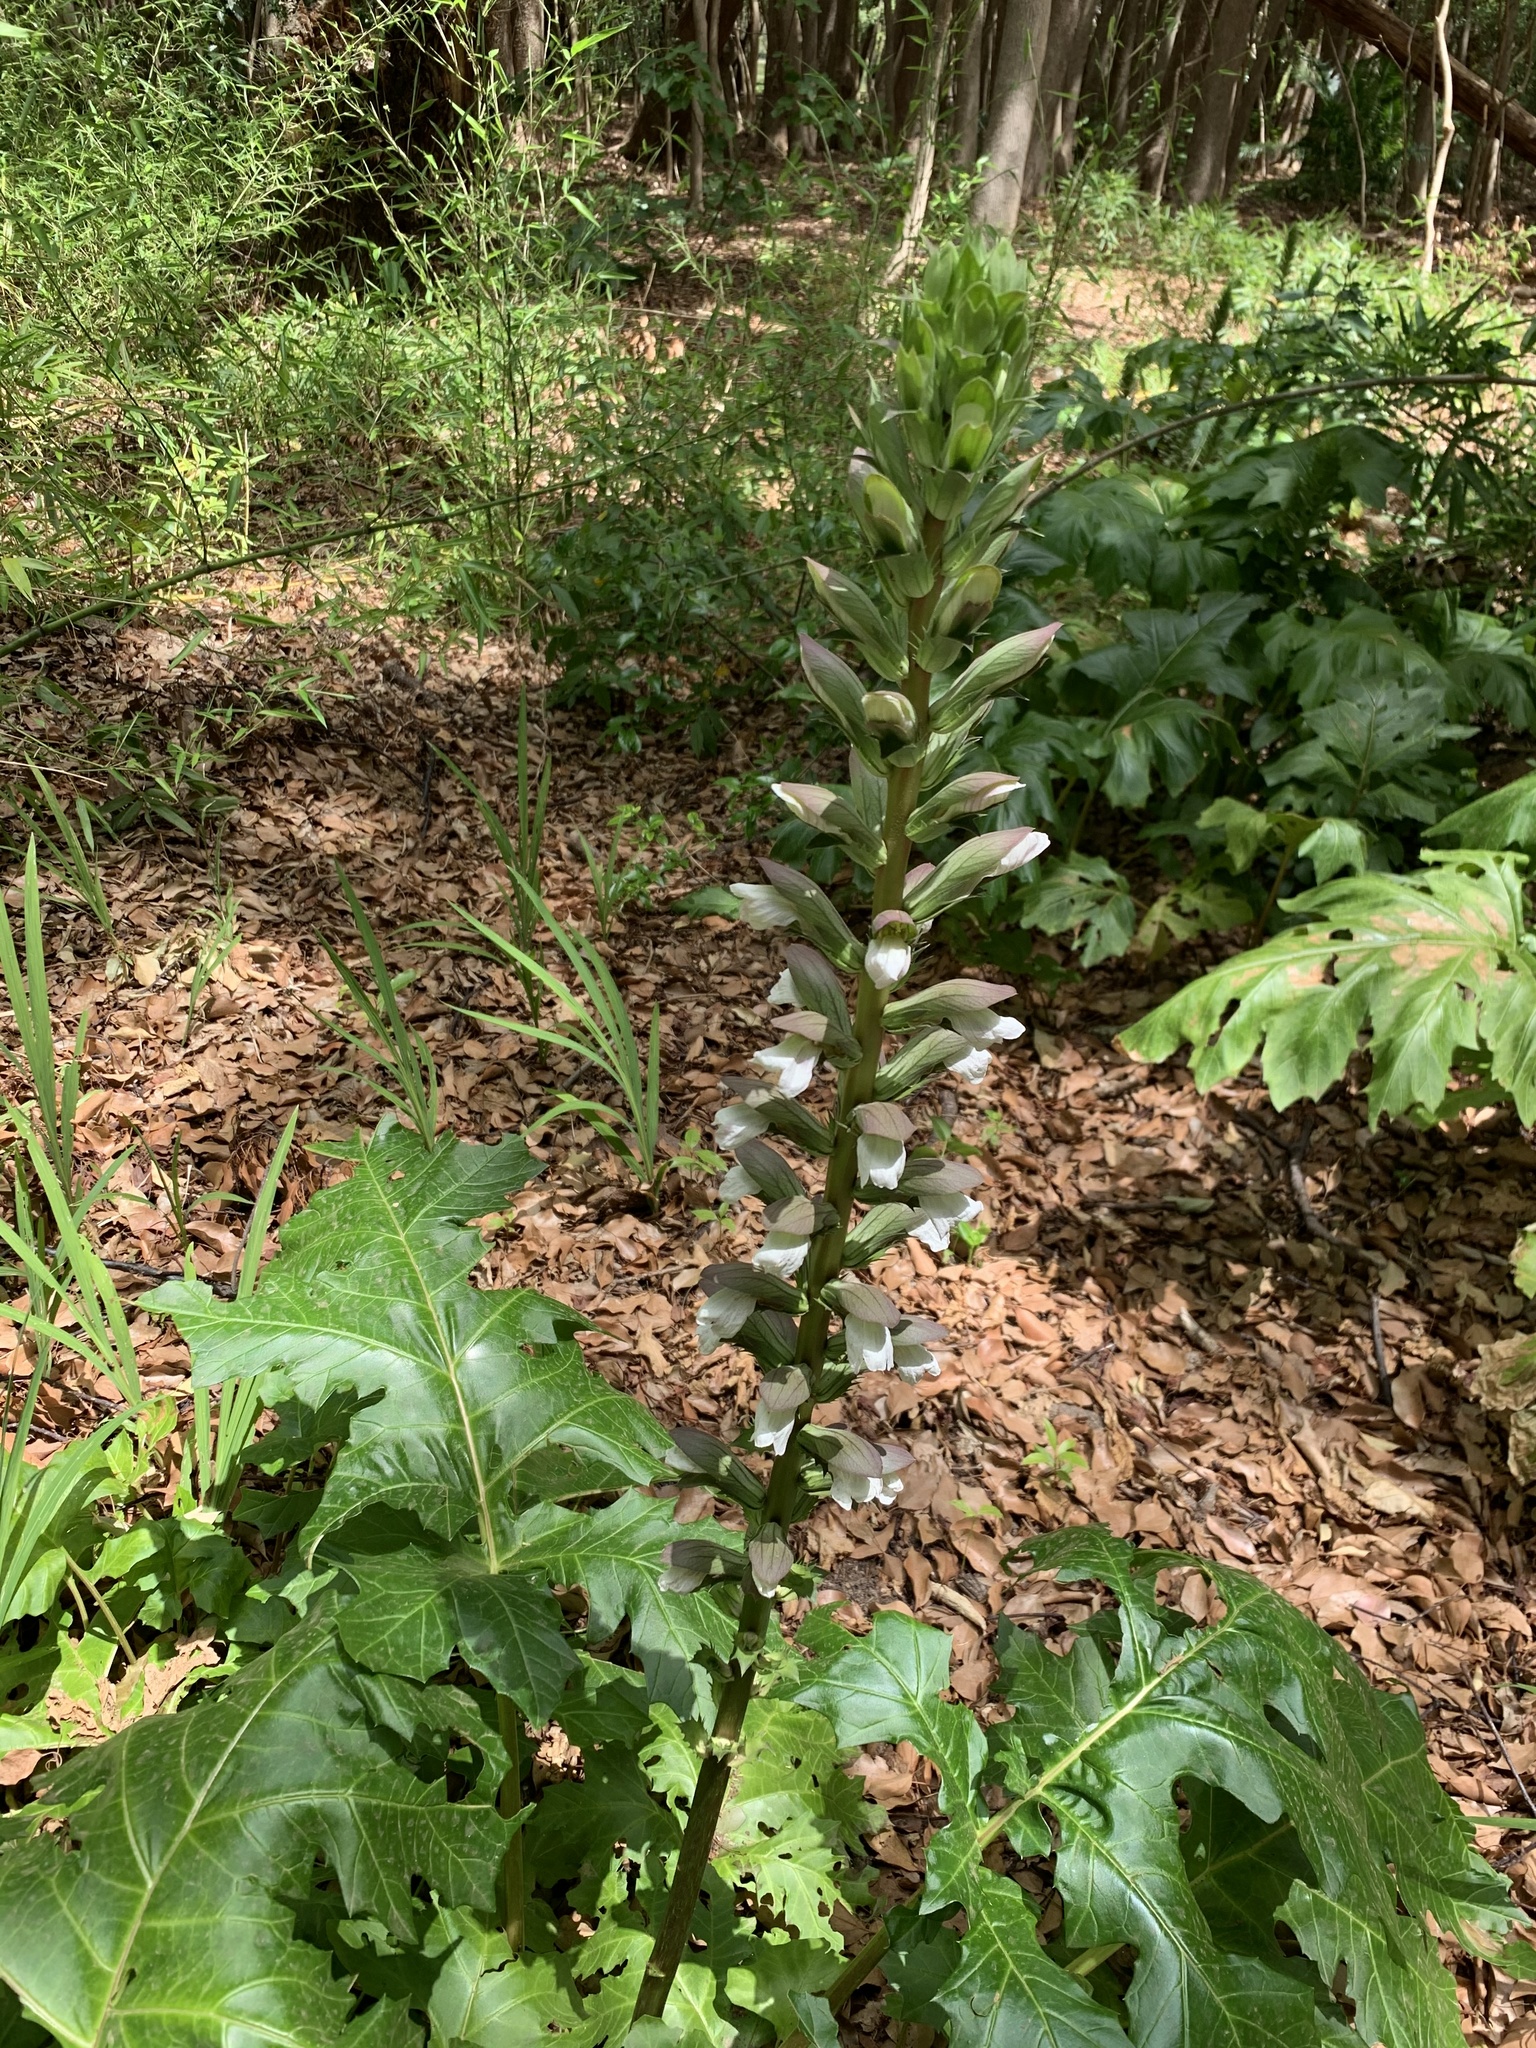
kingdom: Plantae
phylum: Tracheophyta
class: Magnoliopsida
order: Lamiales
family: Acanthaceae
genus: Acanthus
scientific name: Acanthus mollis
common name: Bear's-breech
